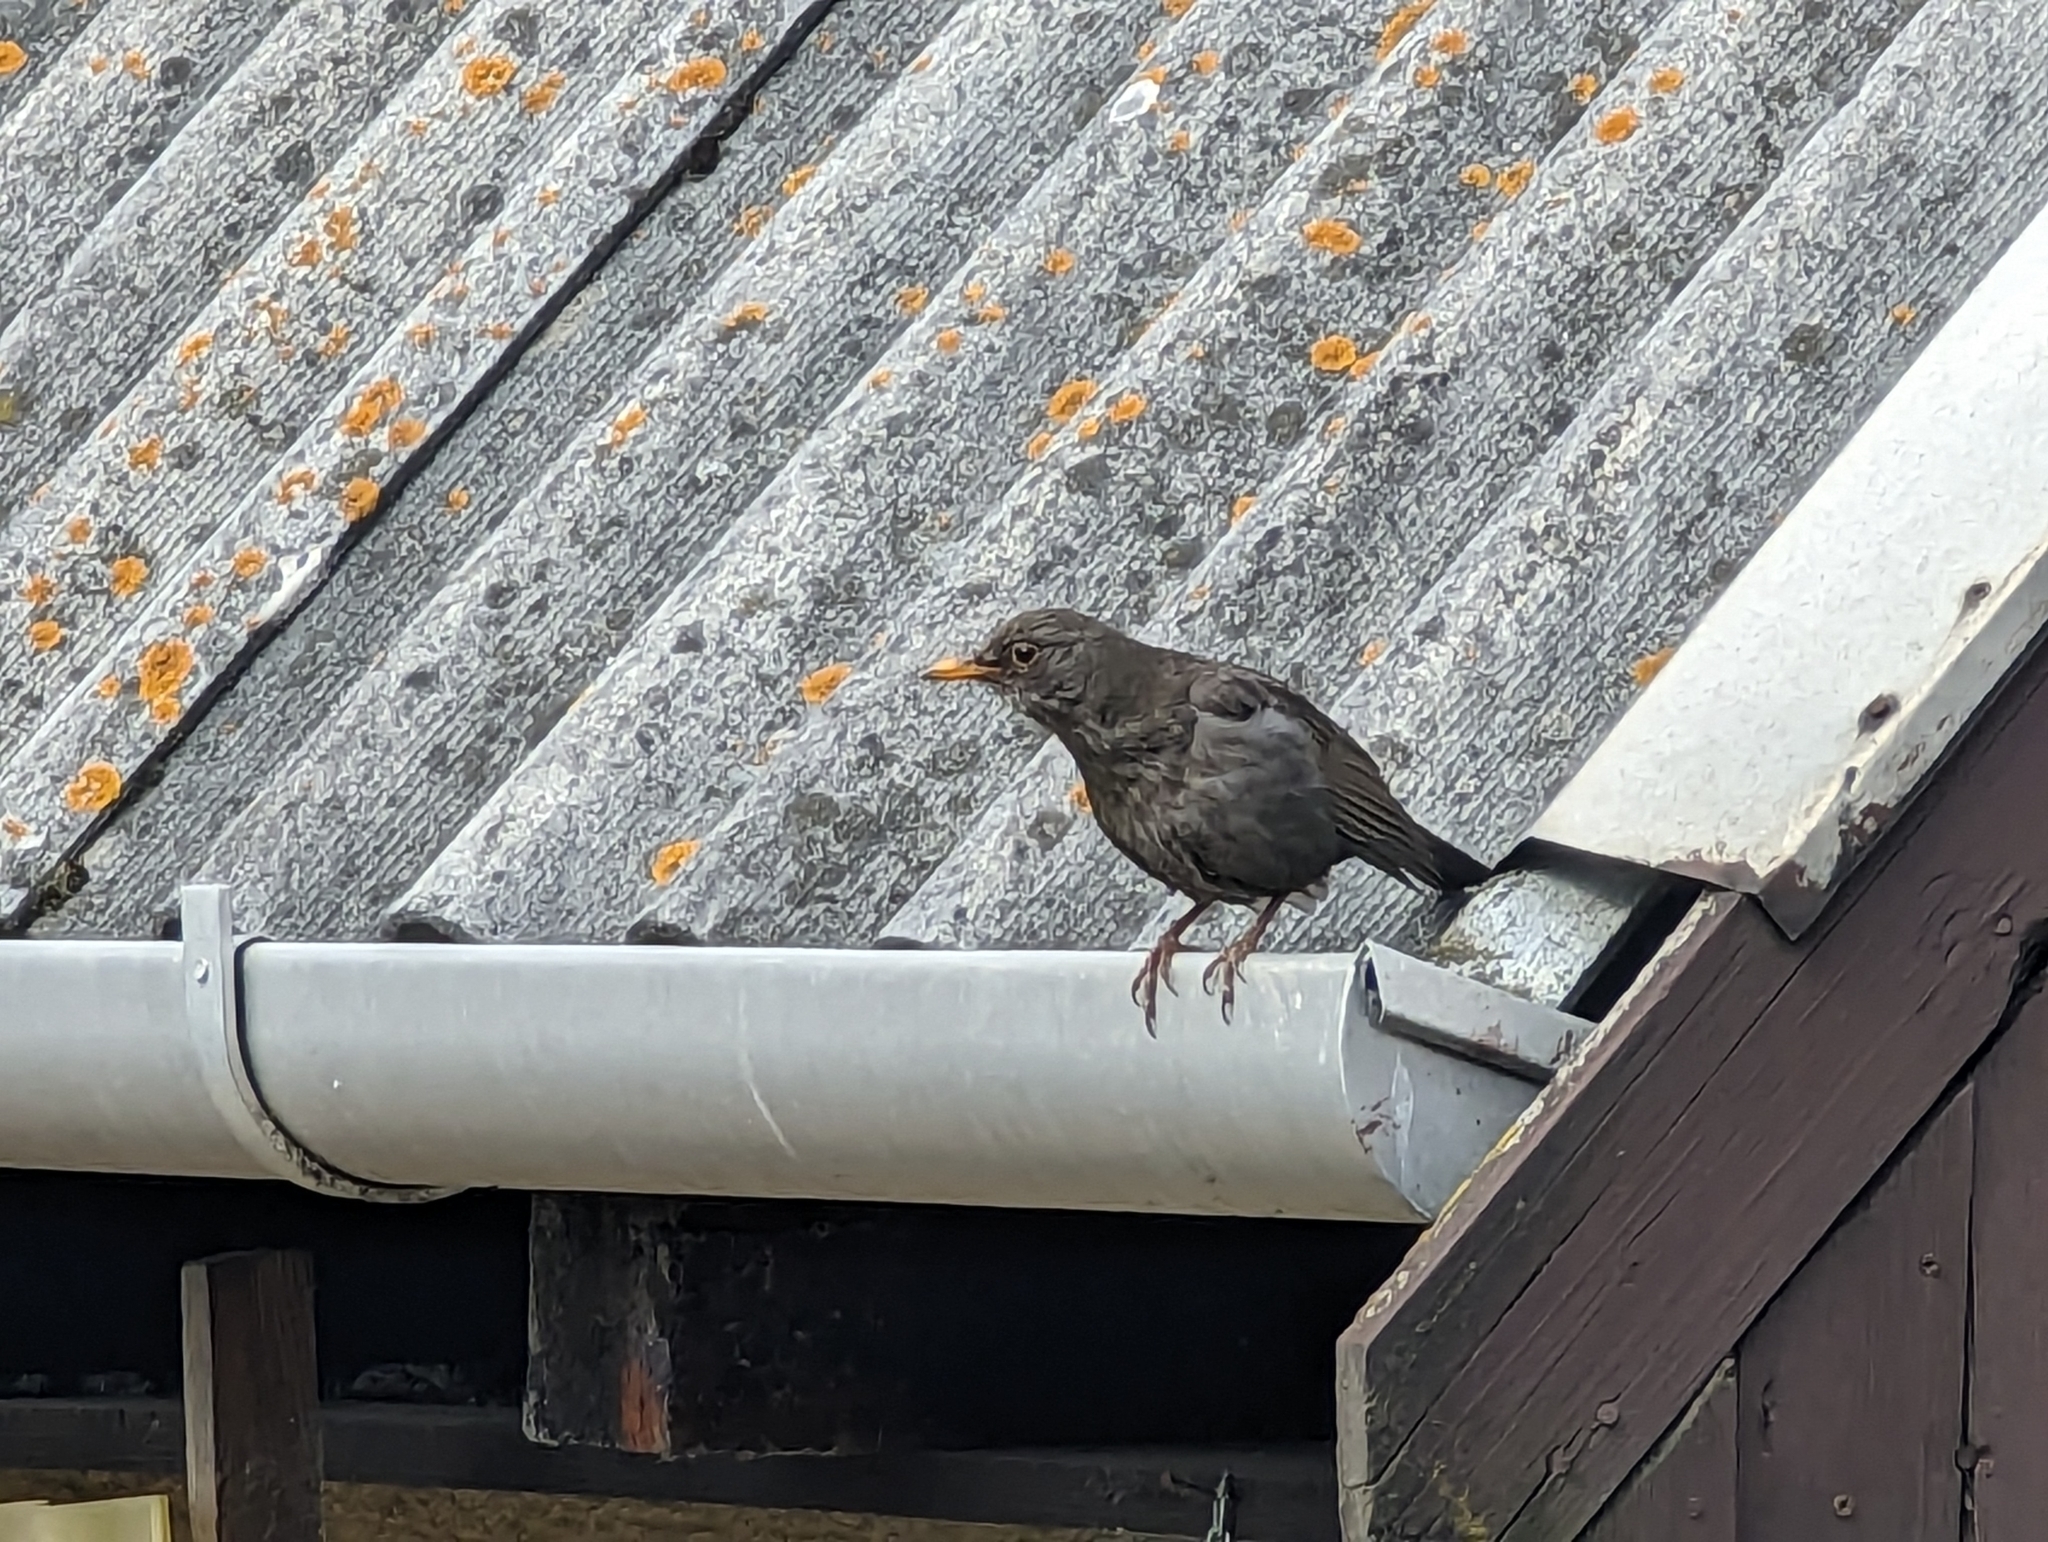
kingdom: Animalia
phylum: Chordata
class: Aves
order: Passeriformes
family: Turdidae
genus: Turdus
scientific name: Turdus merula
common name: Common blackbird
